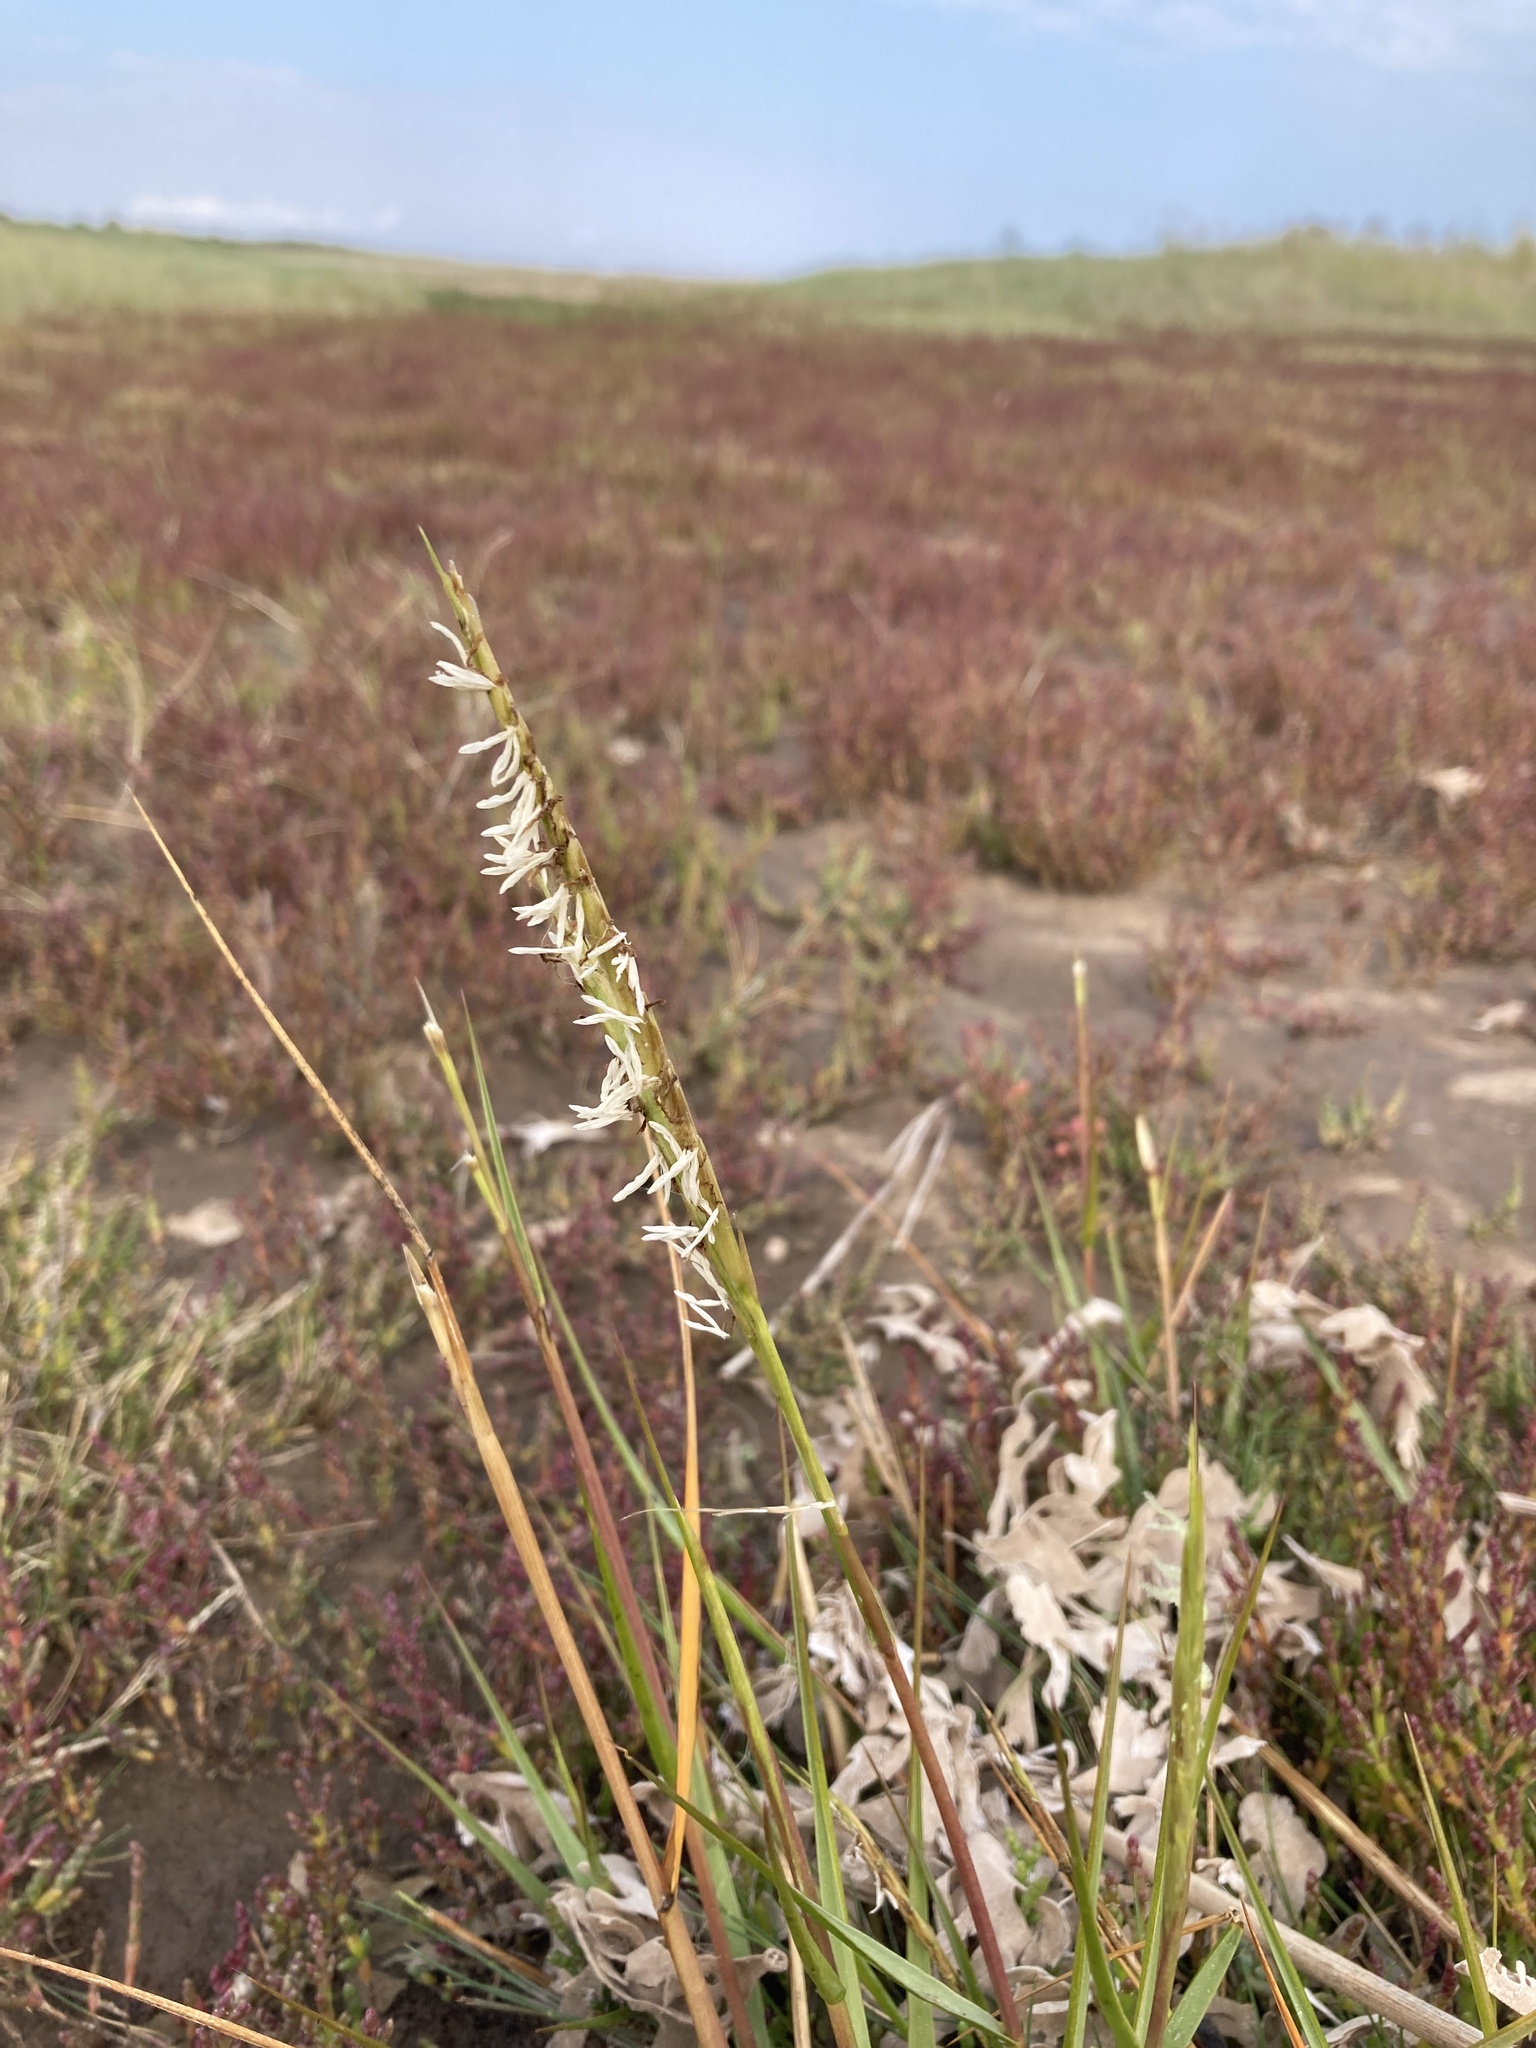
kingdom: Plantae
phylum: Tracheophyta
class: Liliopsida
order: Poales
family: Poaceae
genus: Sporobolus
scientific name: Sporobolus anglicus
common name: English cordgrass
